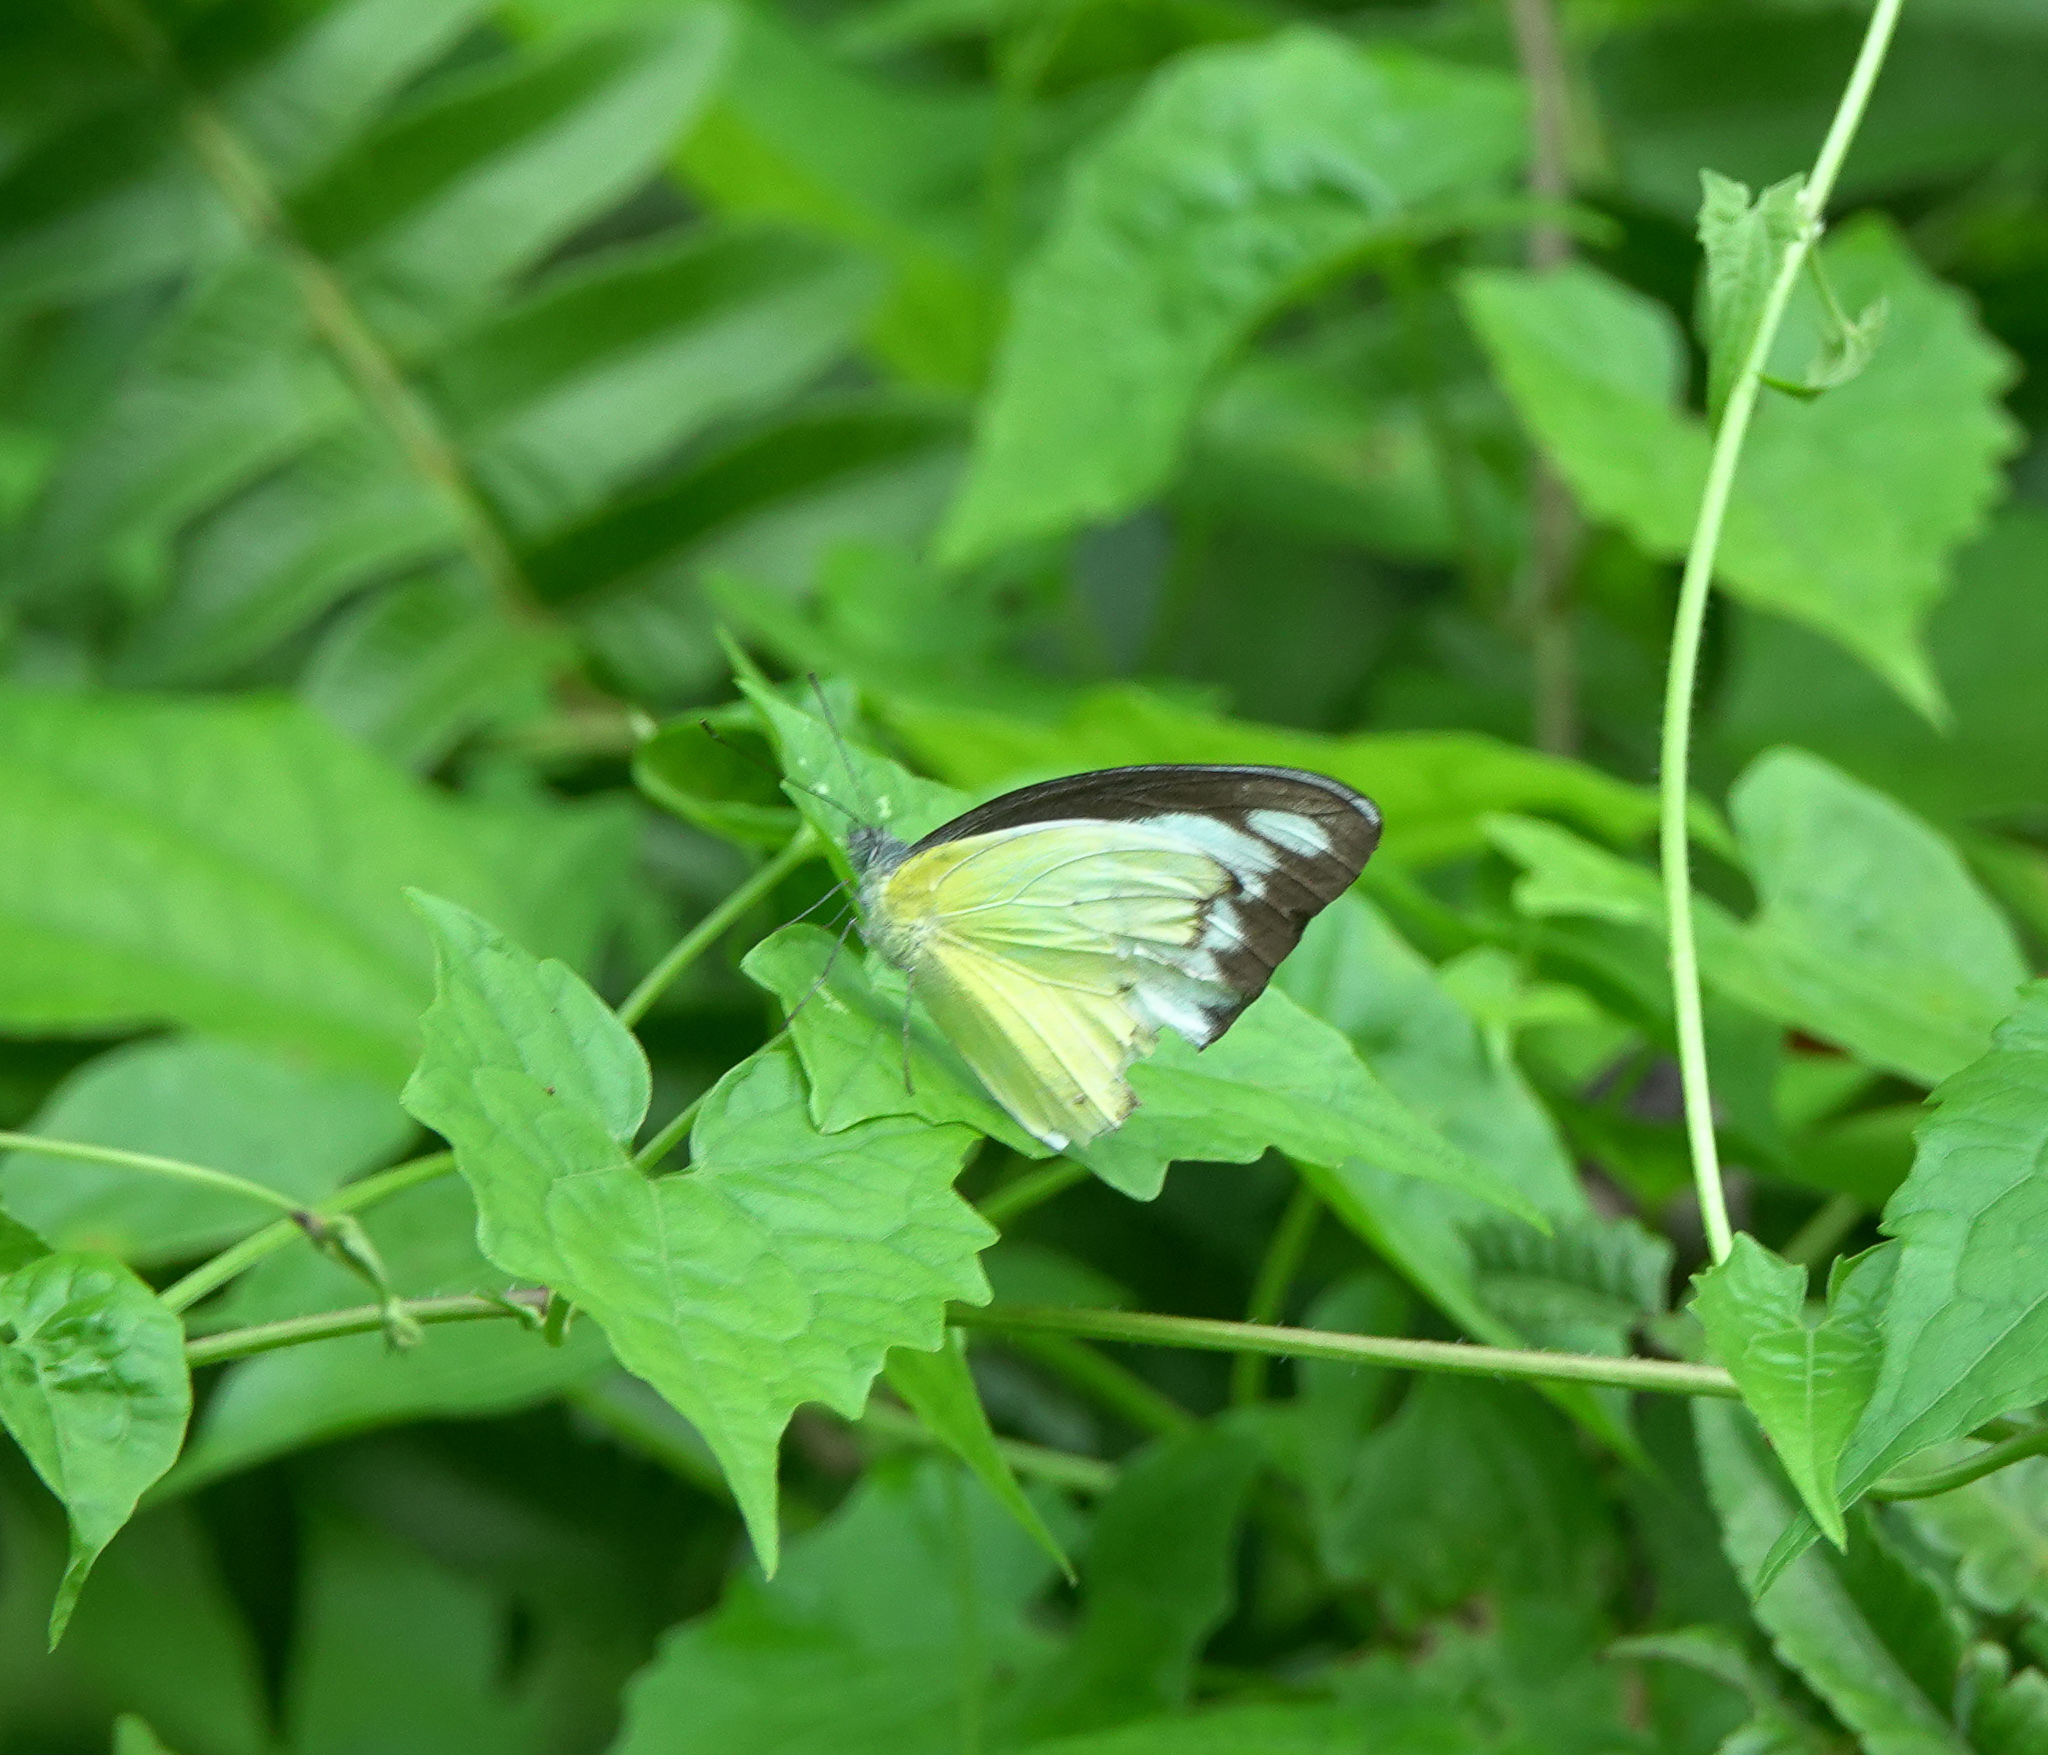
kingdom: Animalia
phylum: Arthropoda
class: Insecta
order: Lepidoptera
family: Pieridae
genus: Appias
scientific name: Appias lyncida
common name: Chocolate albatross
